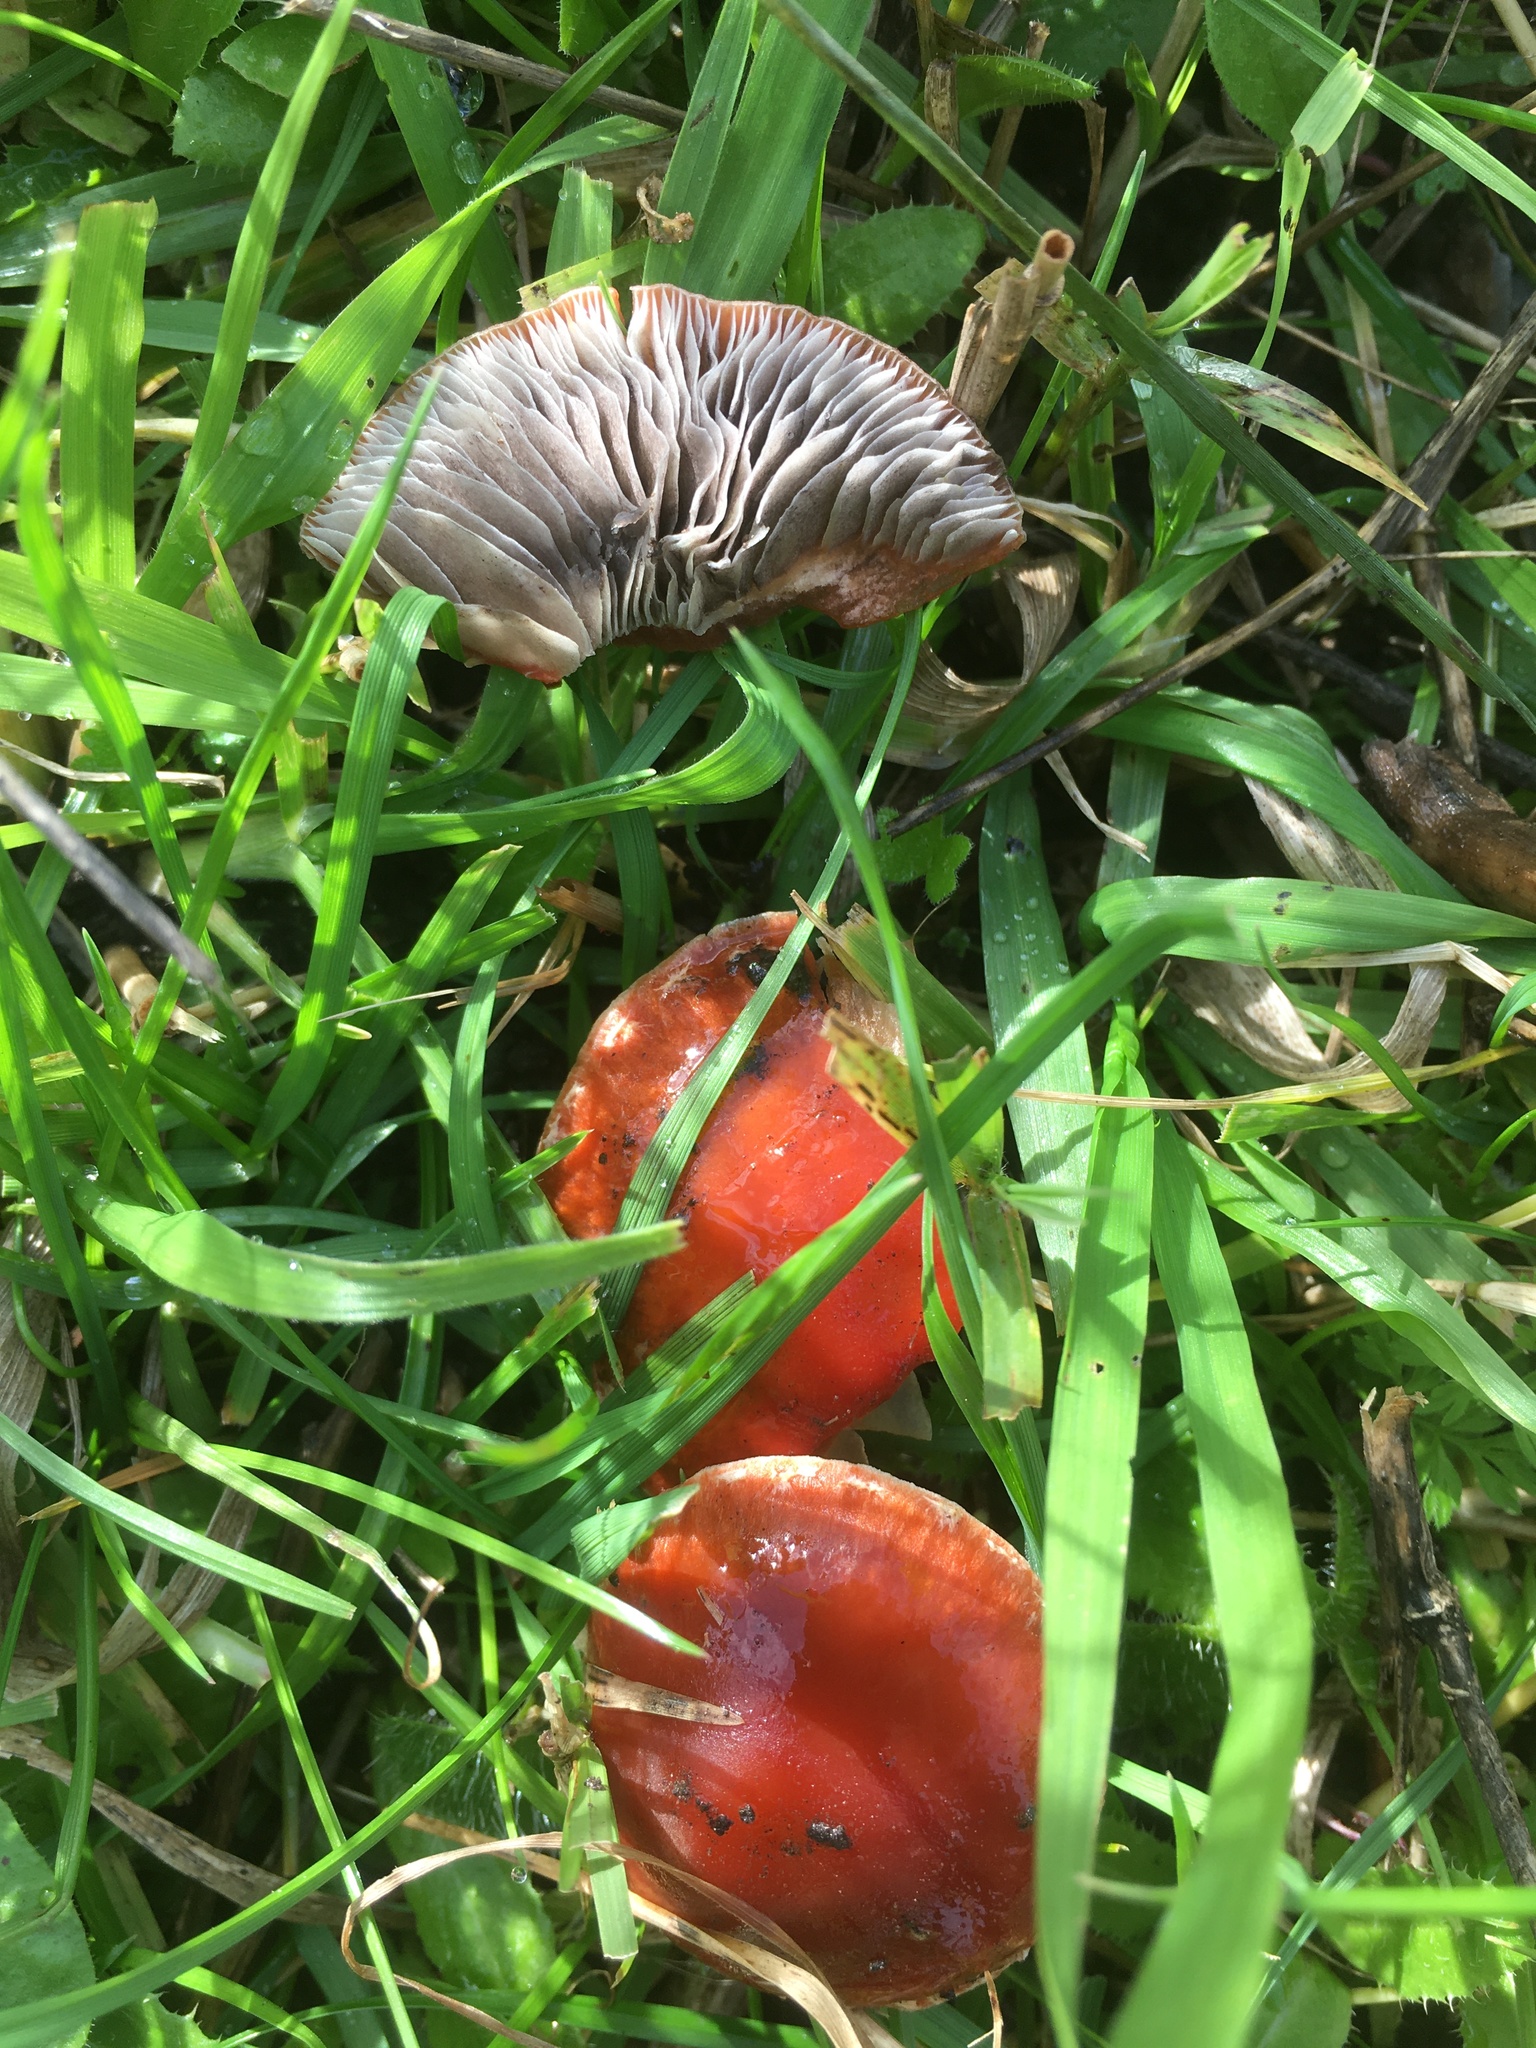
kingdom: Fungi
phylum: Basidiomycota
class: Agaricomycetes
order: Agaricales
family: Strophariaceae
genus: Leratiomyces
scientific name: Leratiomyces ceres
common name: Redlead roundhead
